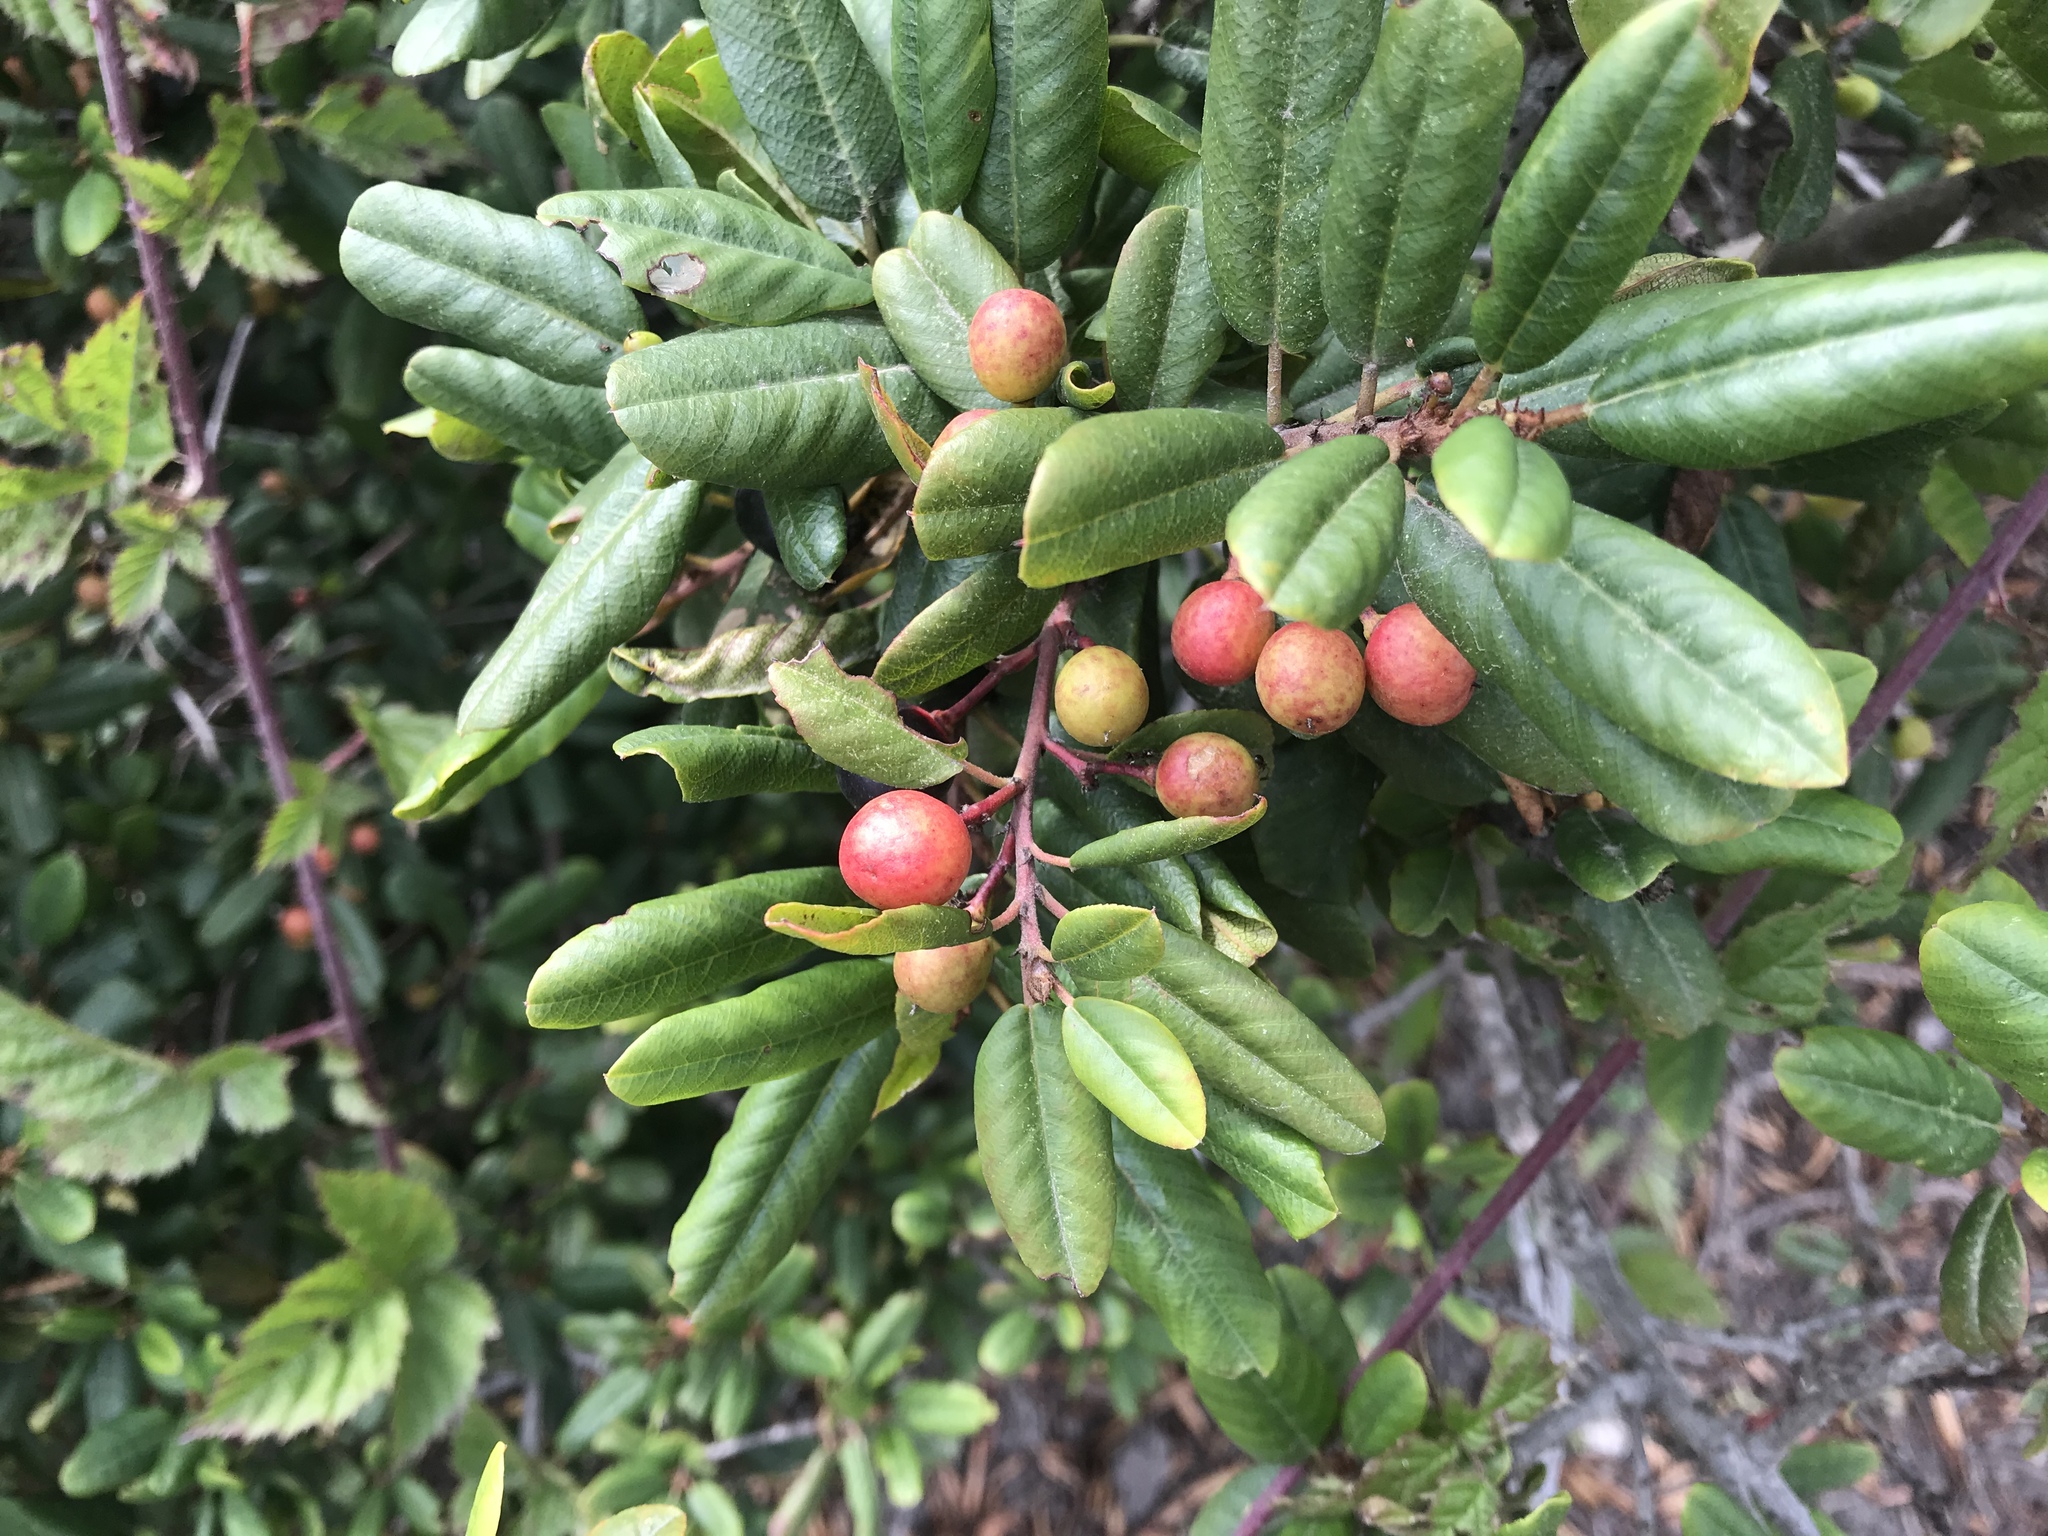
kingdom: Plantae
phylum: Tracheophyta
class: Magnoliopsida
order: Rosales
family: Rhamnaceae
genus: Frangula
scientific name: Frangula californica
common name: California buckthorn
